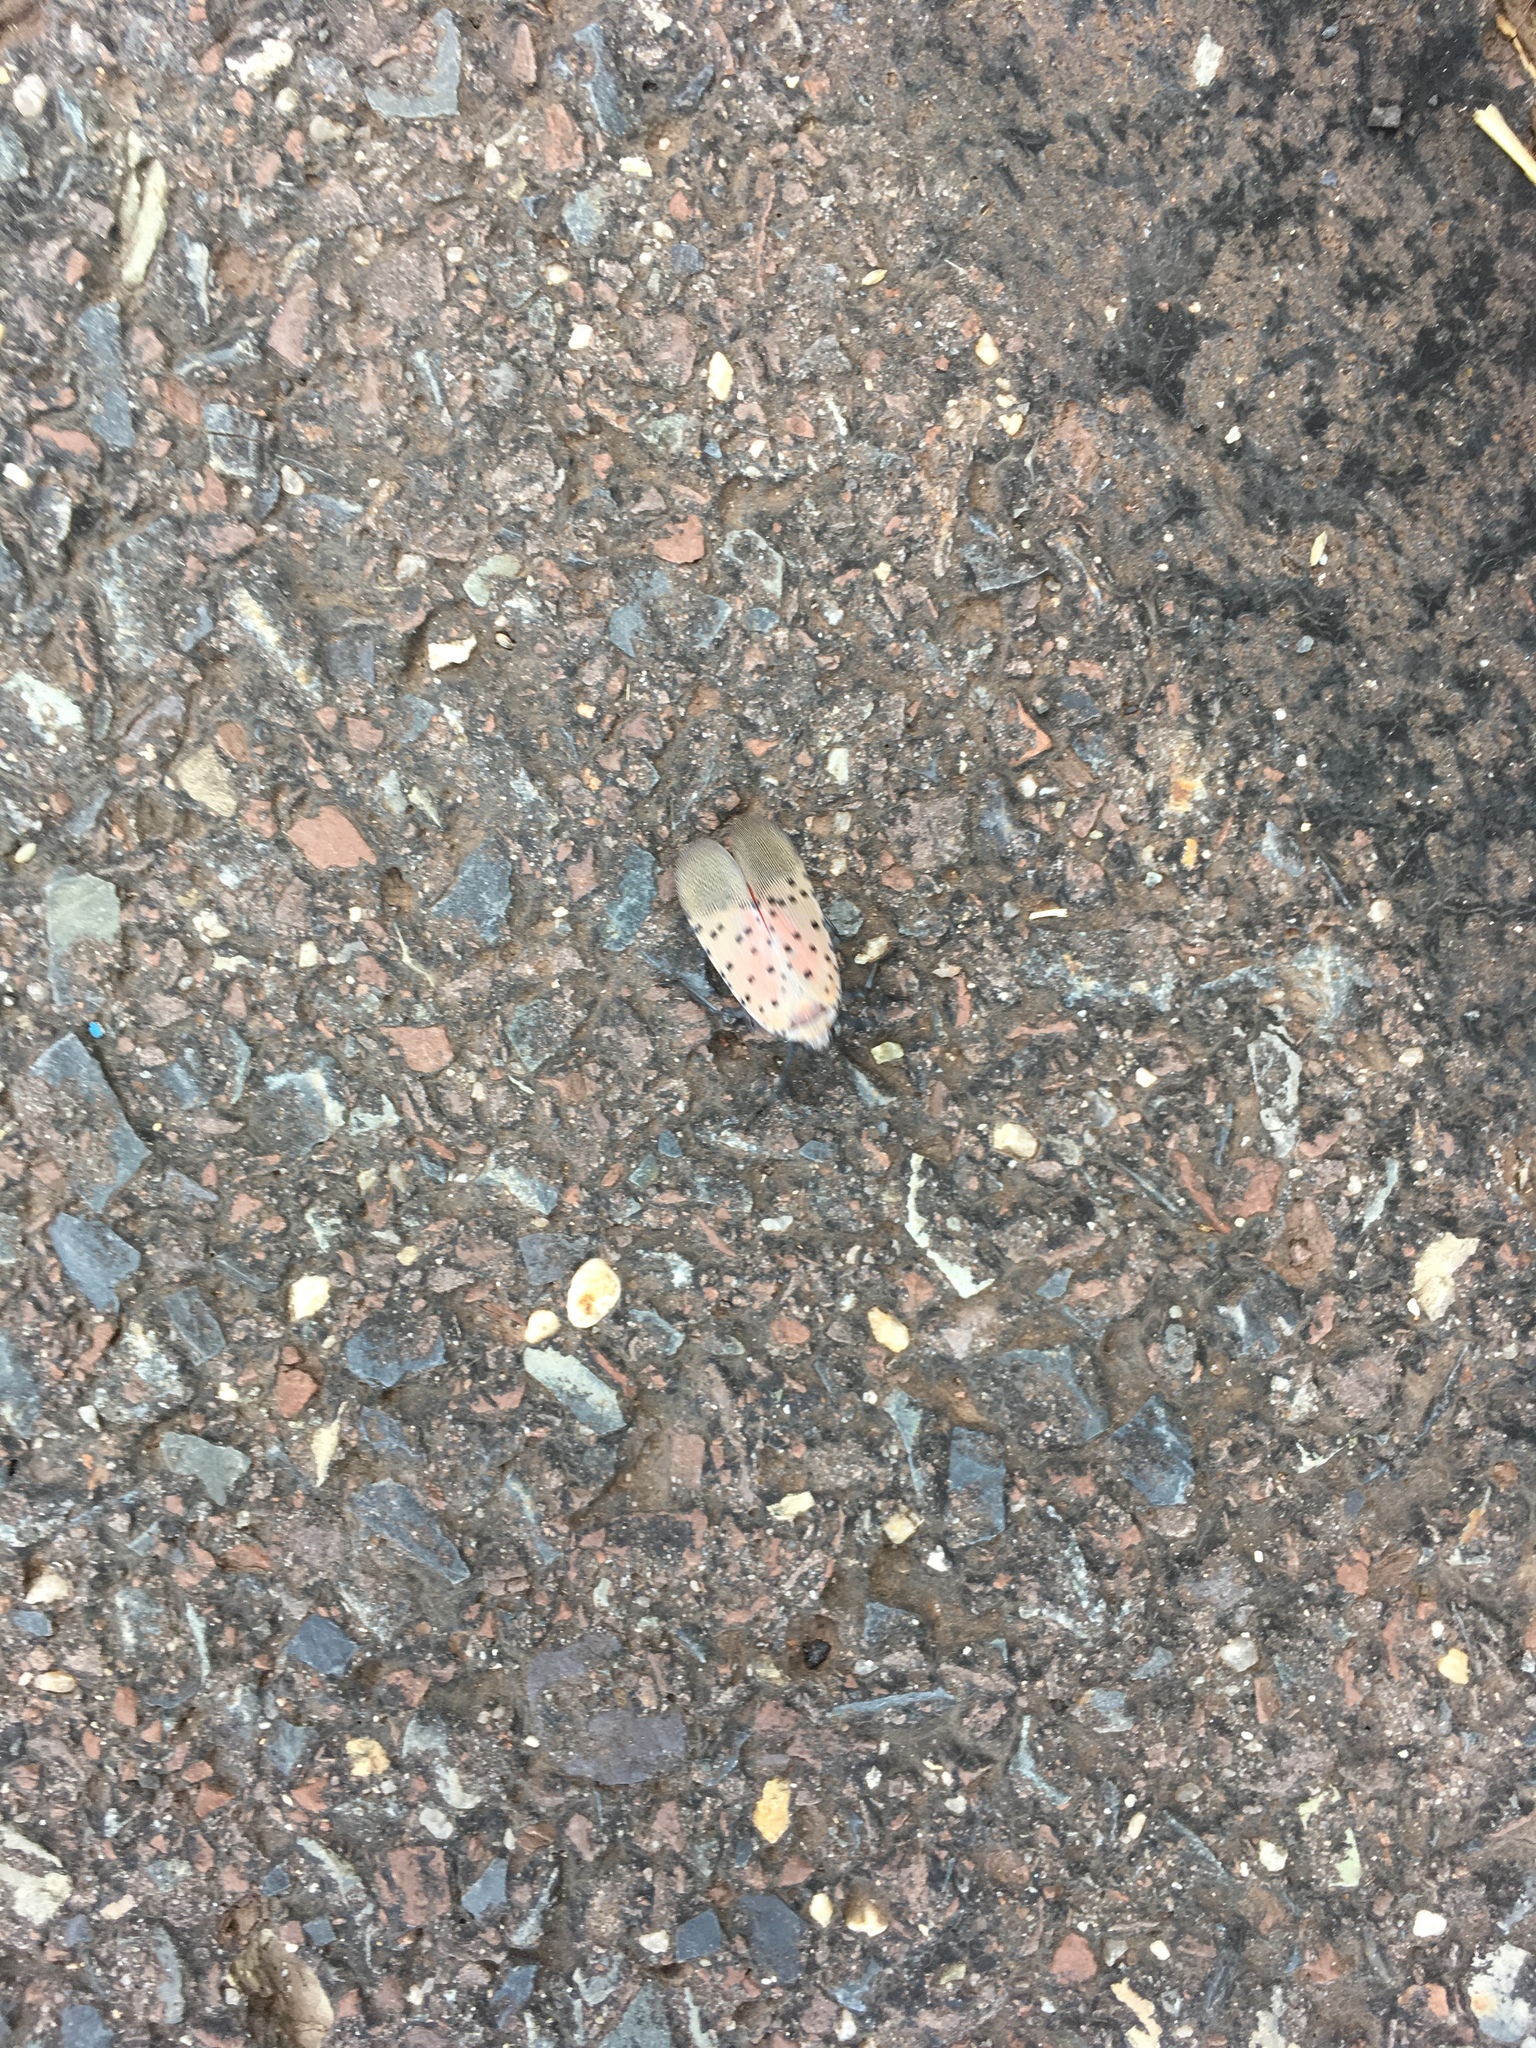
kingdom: Animalia
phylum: Arthropoda
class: Insecta
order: Hemiptera
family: Fulgoridae
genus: Lycorma
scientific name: Lycorma delicatula
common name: Spotted lanternfly
